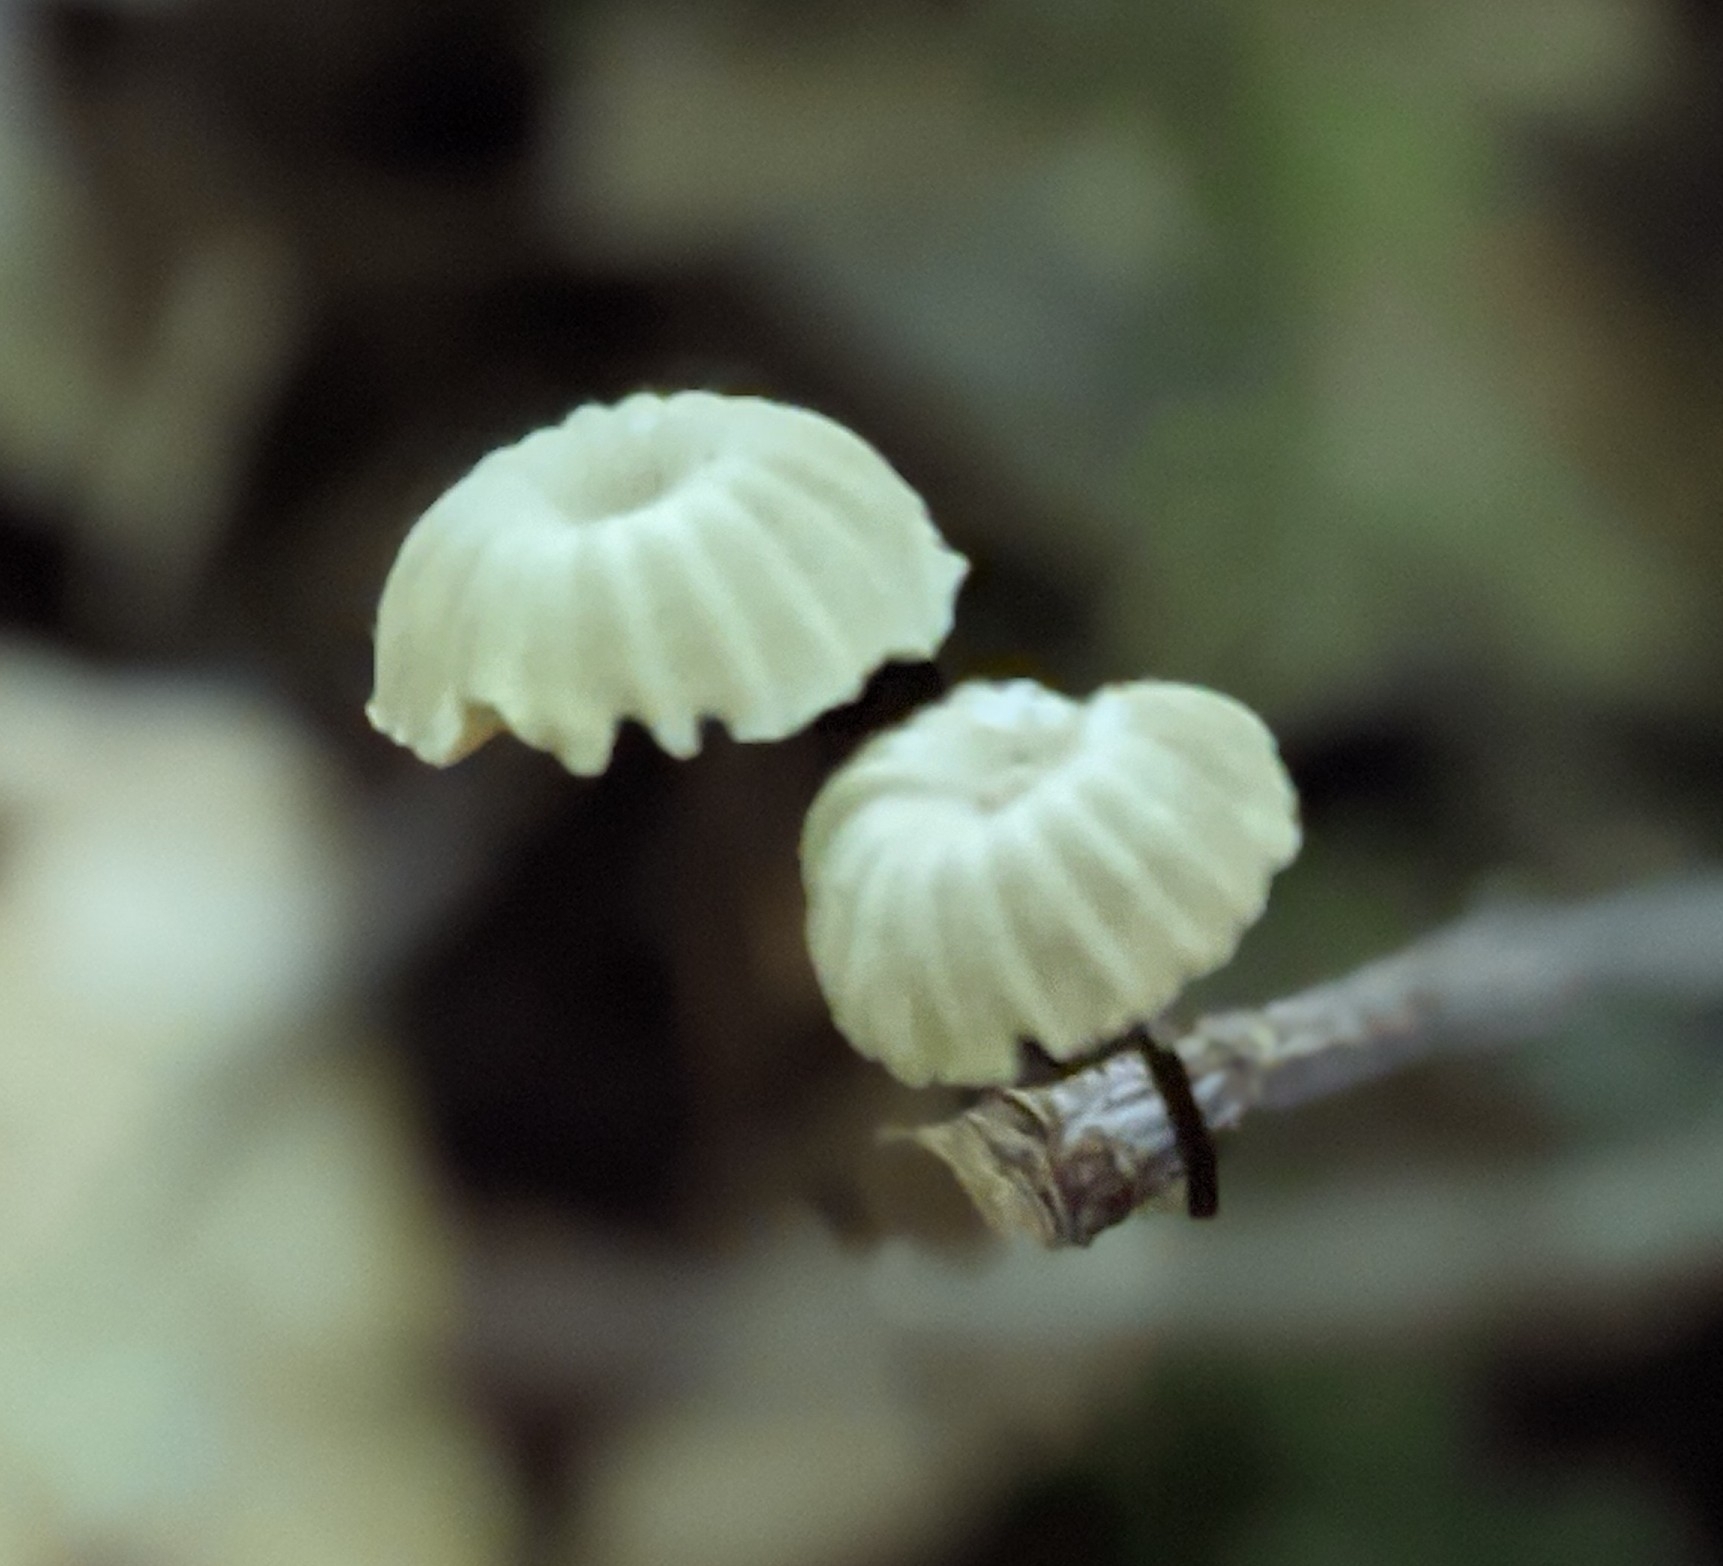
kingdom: Fungi
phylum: Basidiomycota
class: Agaricomycetes
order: Agaricales
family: Marasmiaceae
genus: Marasmius
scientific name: Marasmius rotula
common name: Collared parachute
